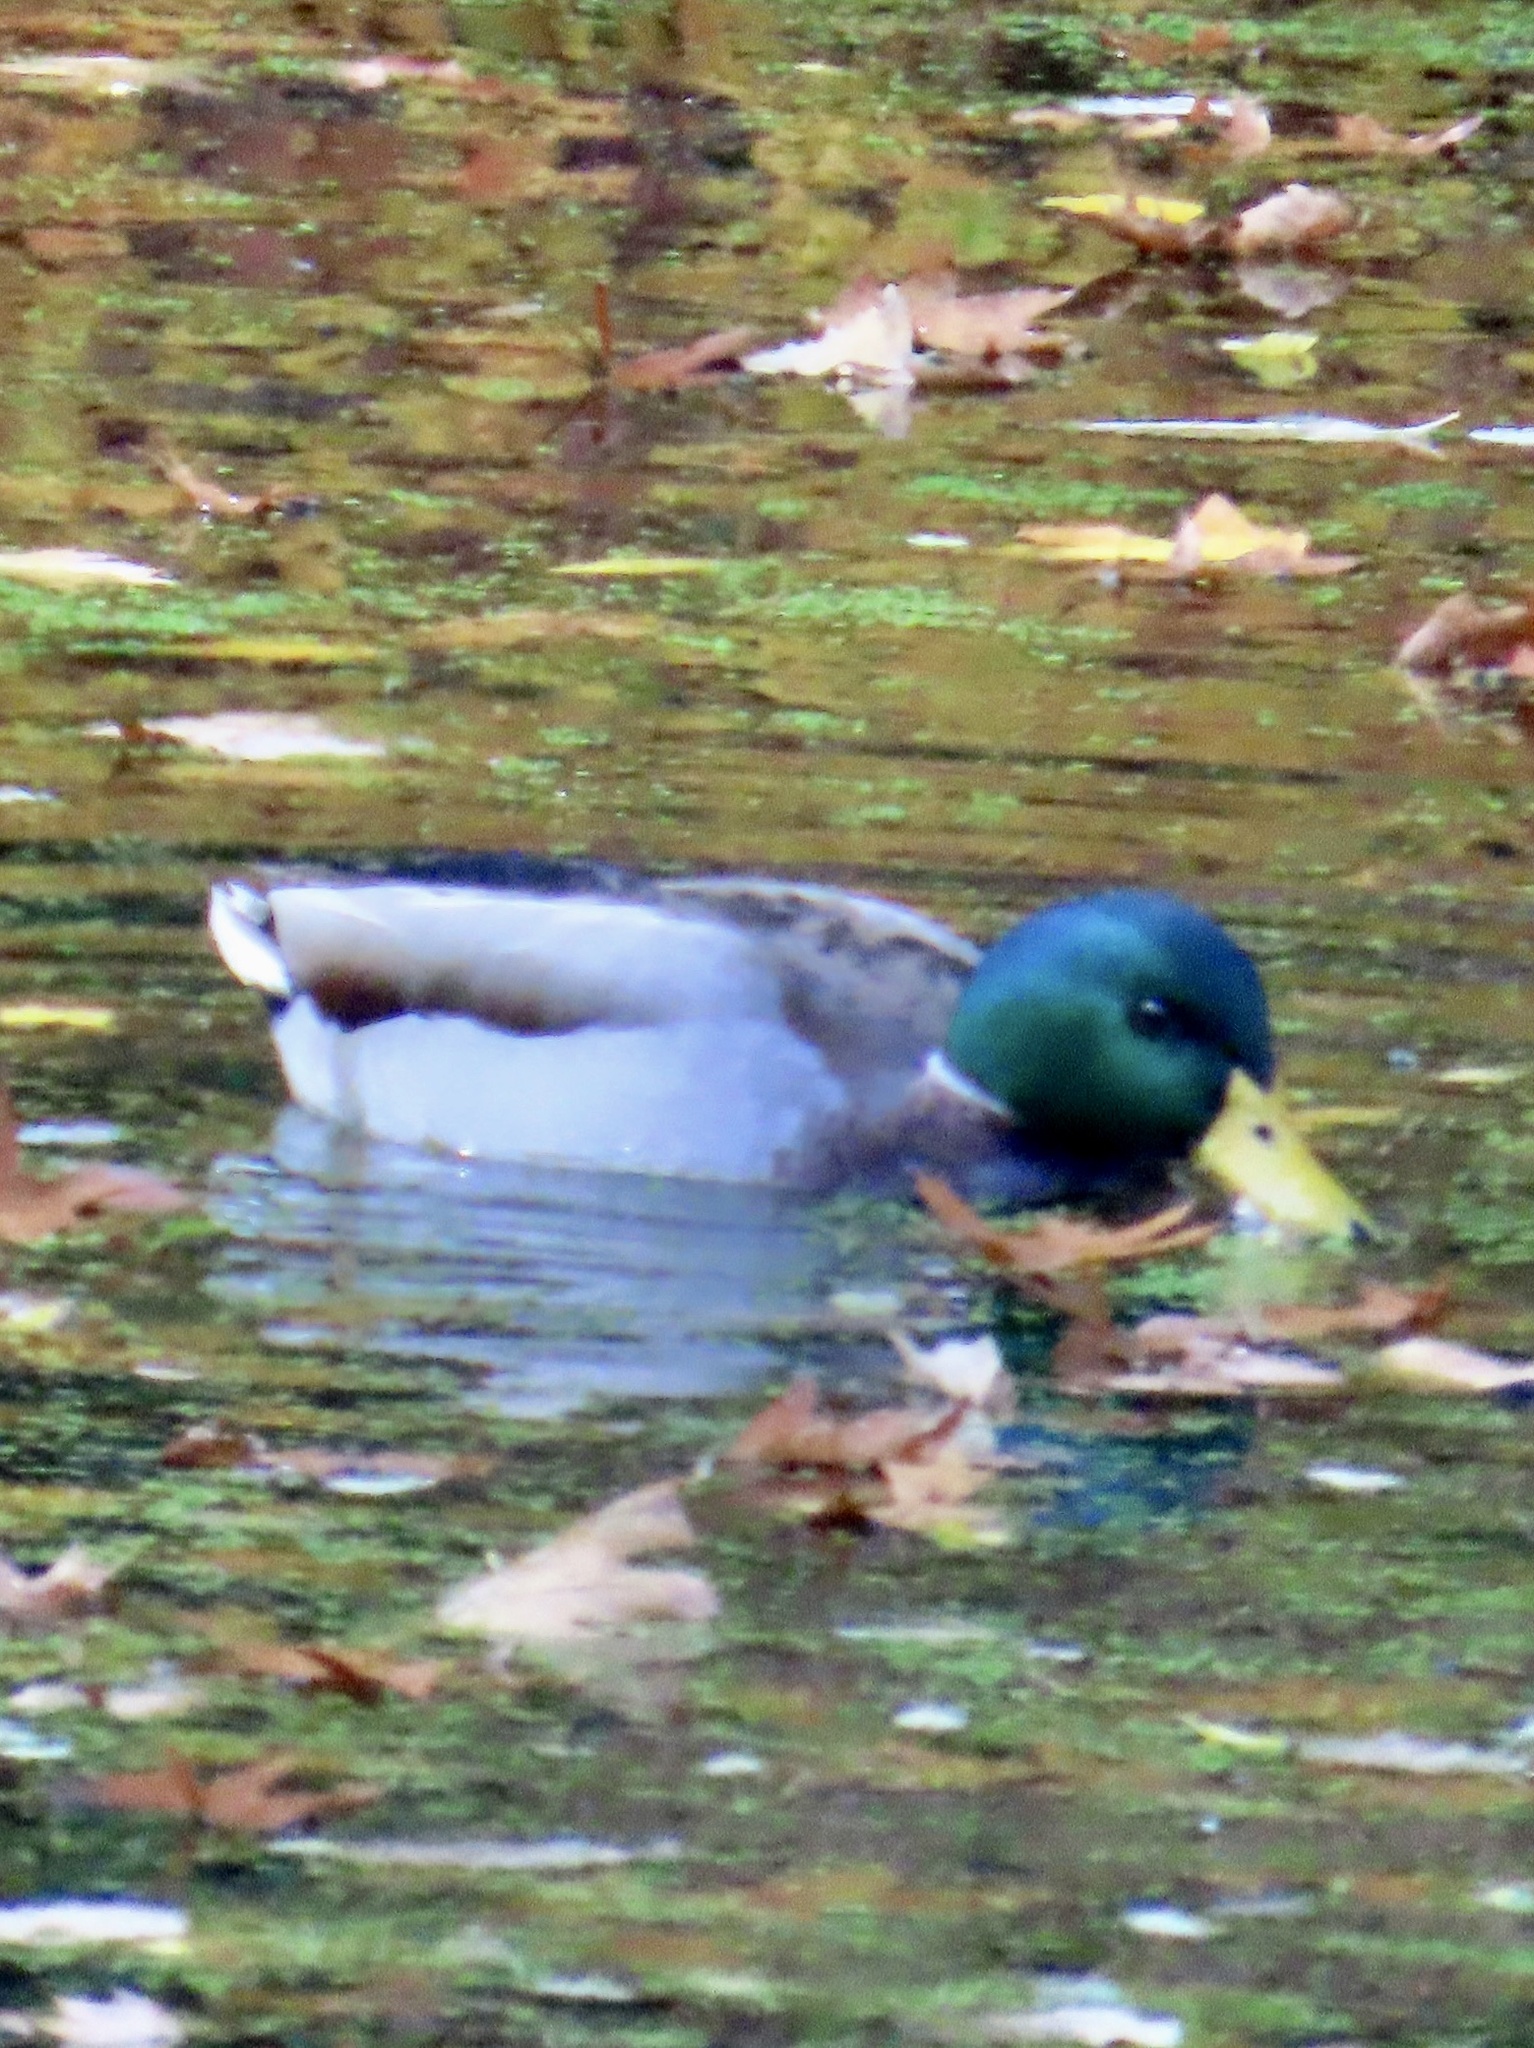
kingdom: Animalia
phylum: Chordata
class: Aves
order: Anseriformes
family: Anatidae
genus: Anas
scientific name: Anas platyrhynchos
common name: Mallard
